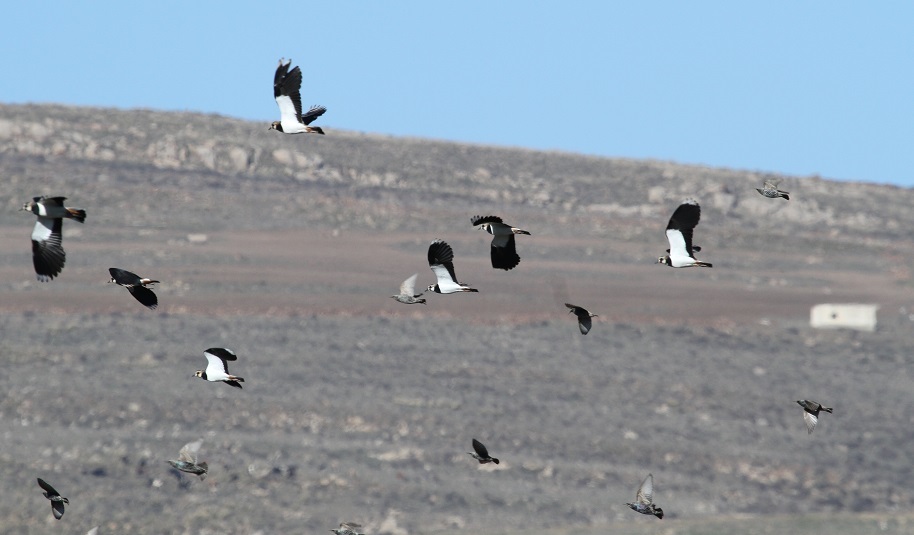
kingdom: Animalia
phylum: Chordata
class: Aves
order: Charadriiformes
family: Charadriidae
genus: Vanellus
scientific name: Vanellus vanellus
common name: Northern lapwing
